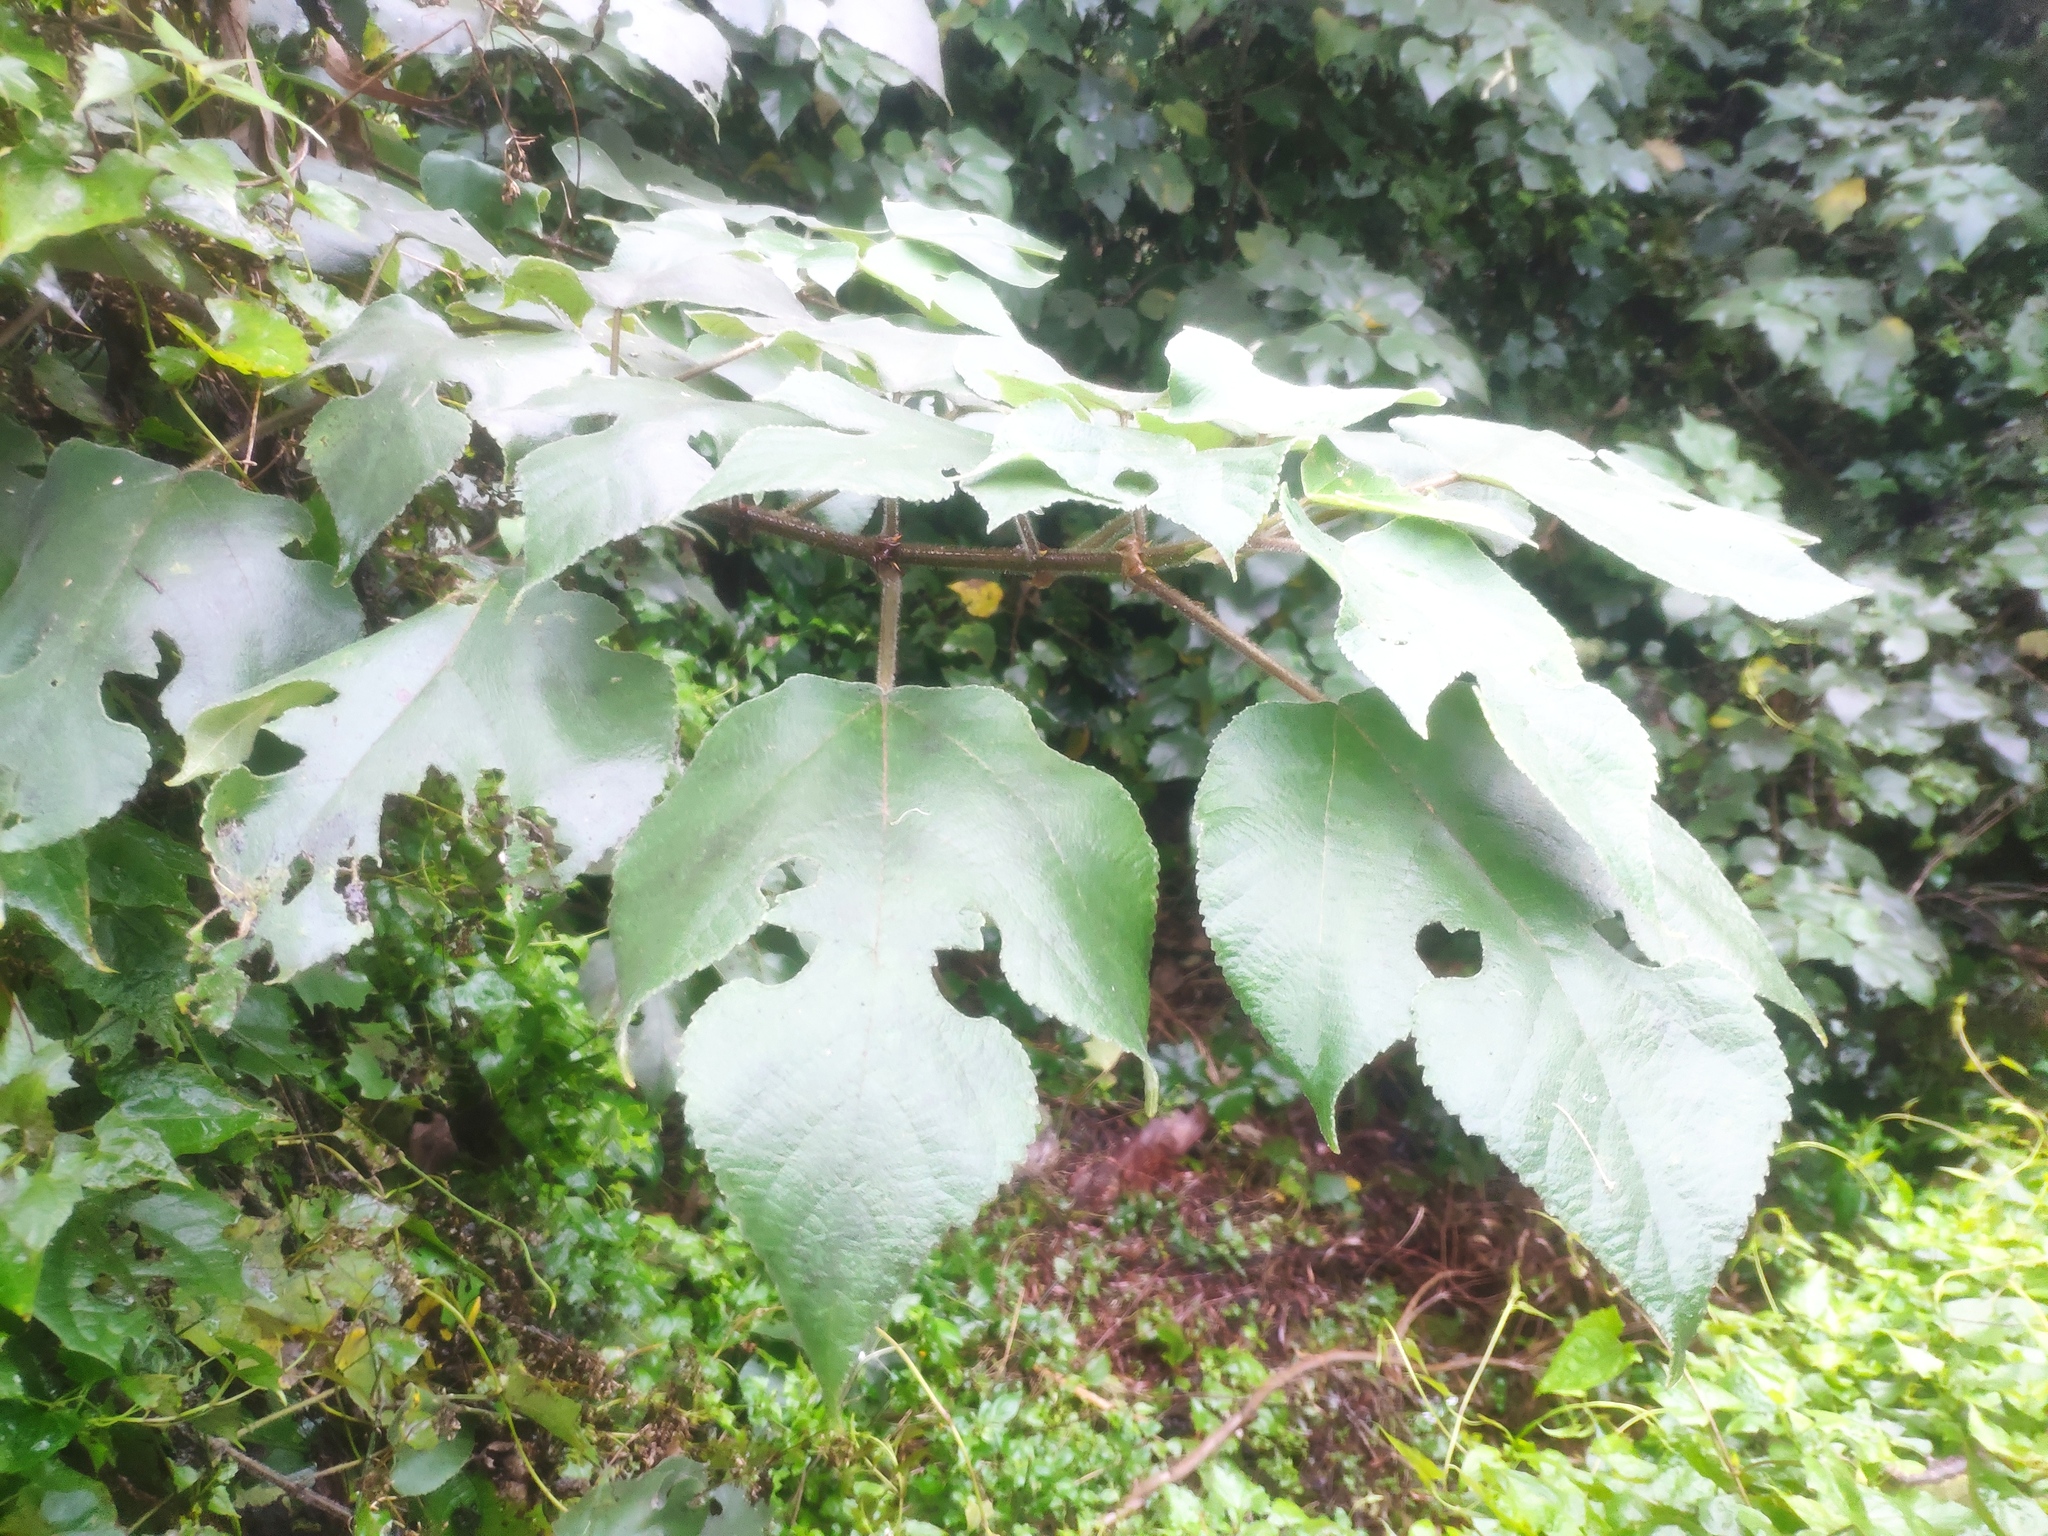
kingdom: Plantae
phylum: Tracheophyta
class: Magnoliopsida
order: Rosales
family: Moraceae
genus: Broussonetia
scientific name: Broussonetia papyrifera
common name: Paper mulberry
